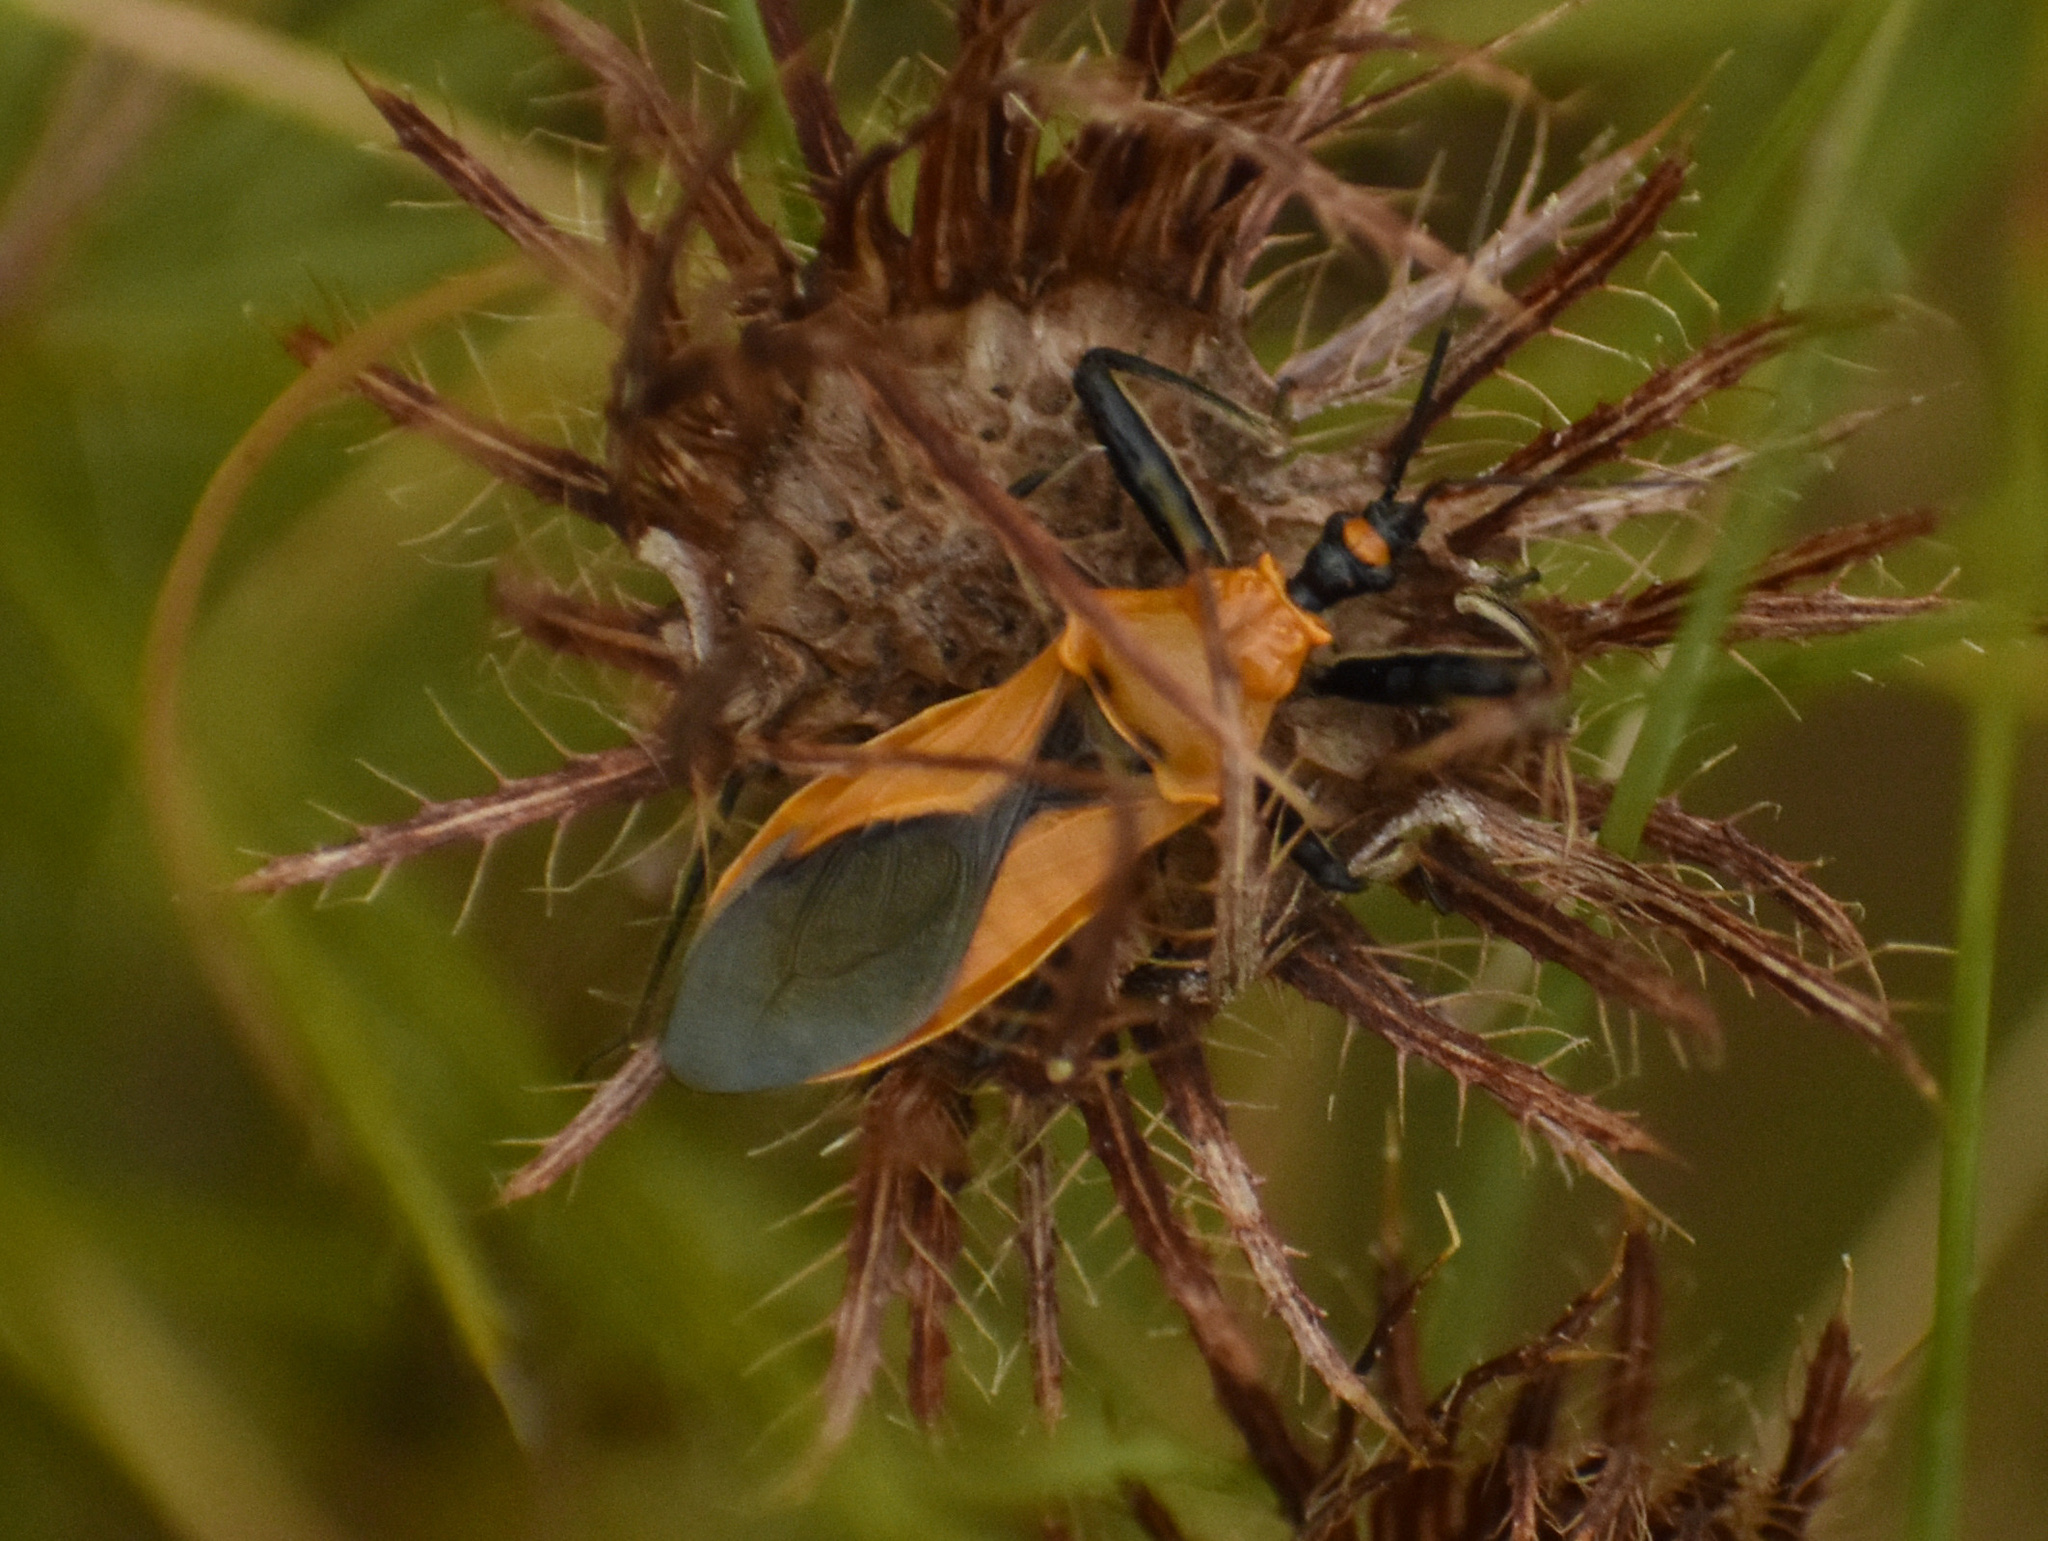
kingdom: Animalia
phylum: Arthropoda
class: Insecta
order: Hemiptera
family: Reduviidae
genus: Vitumnus
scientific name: Vitumnus scenicus
